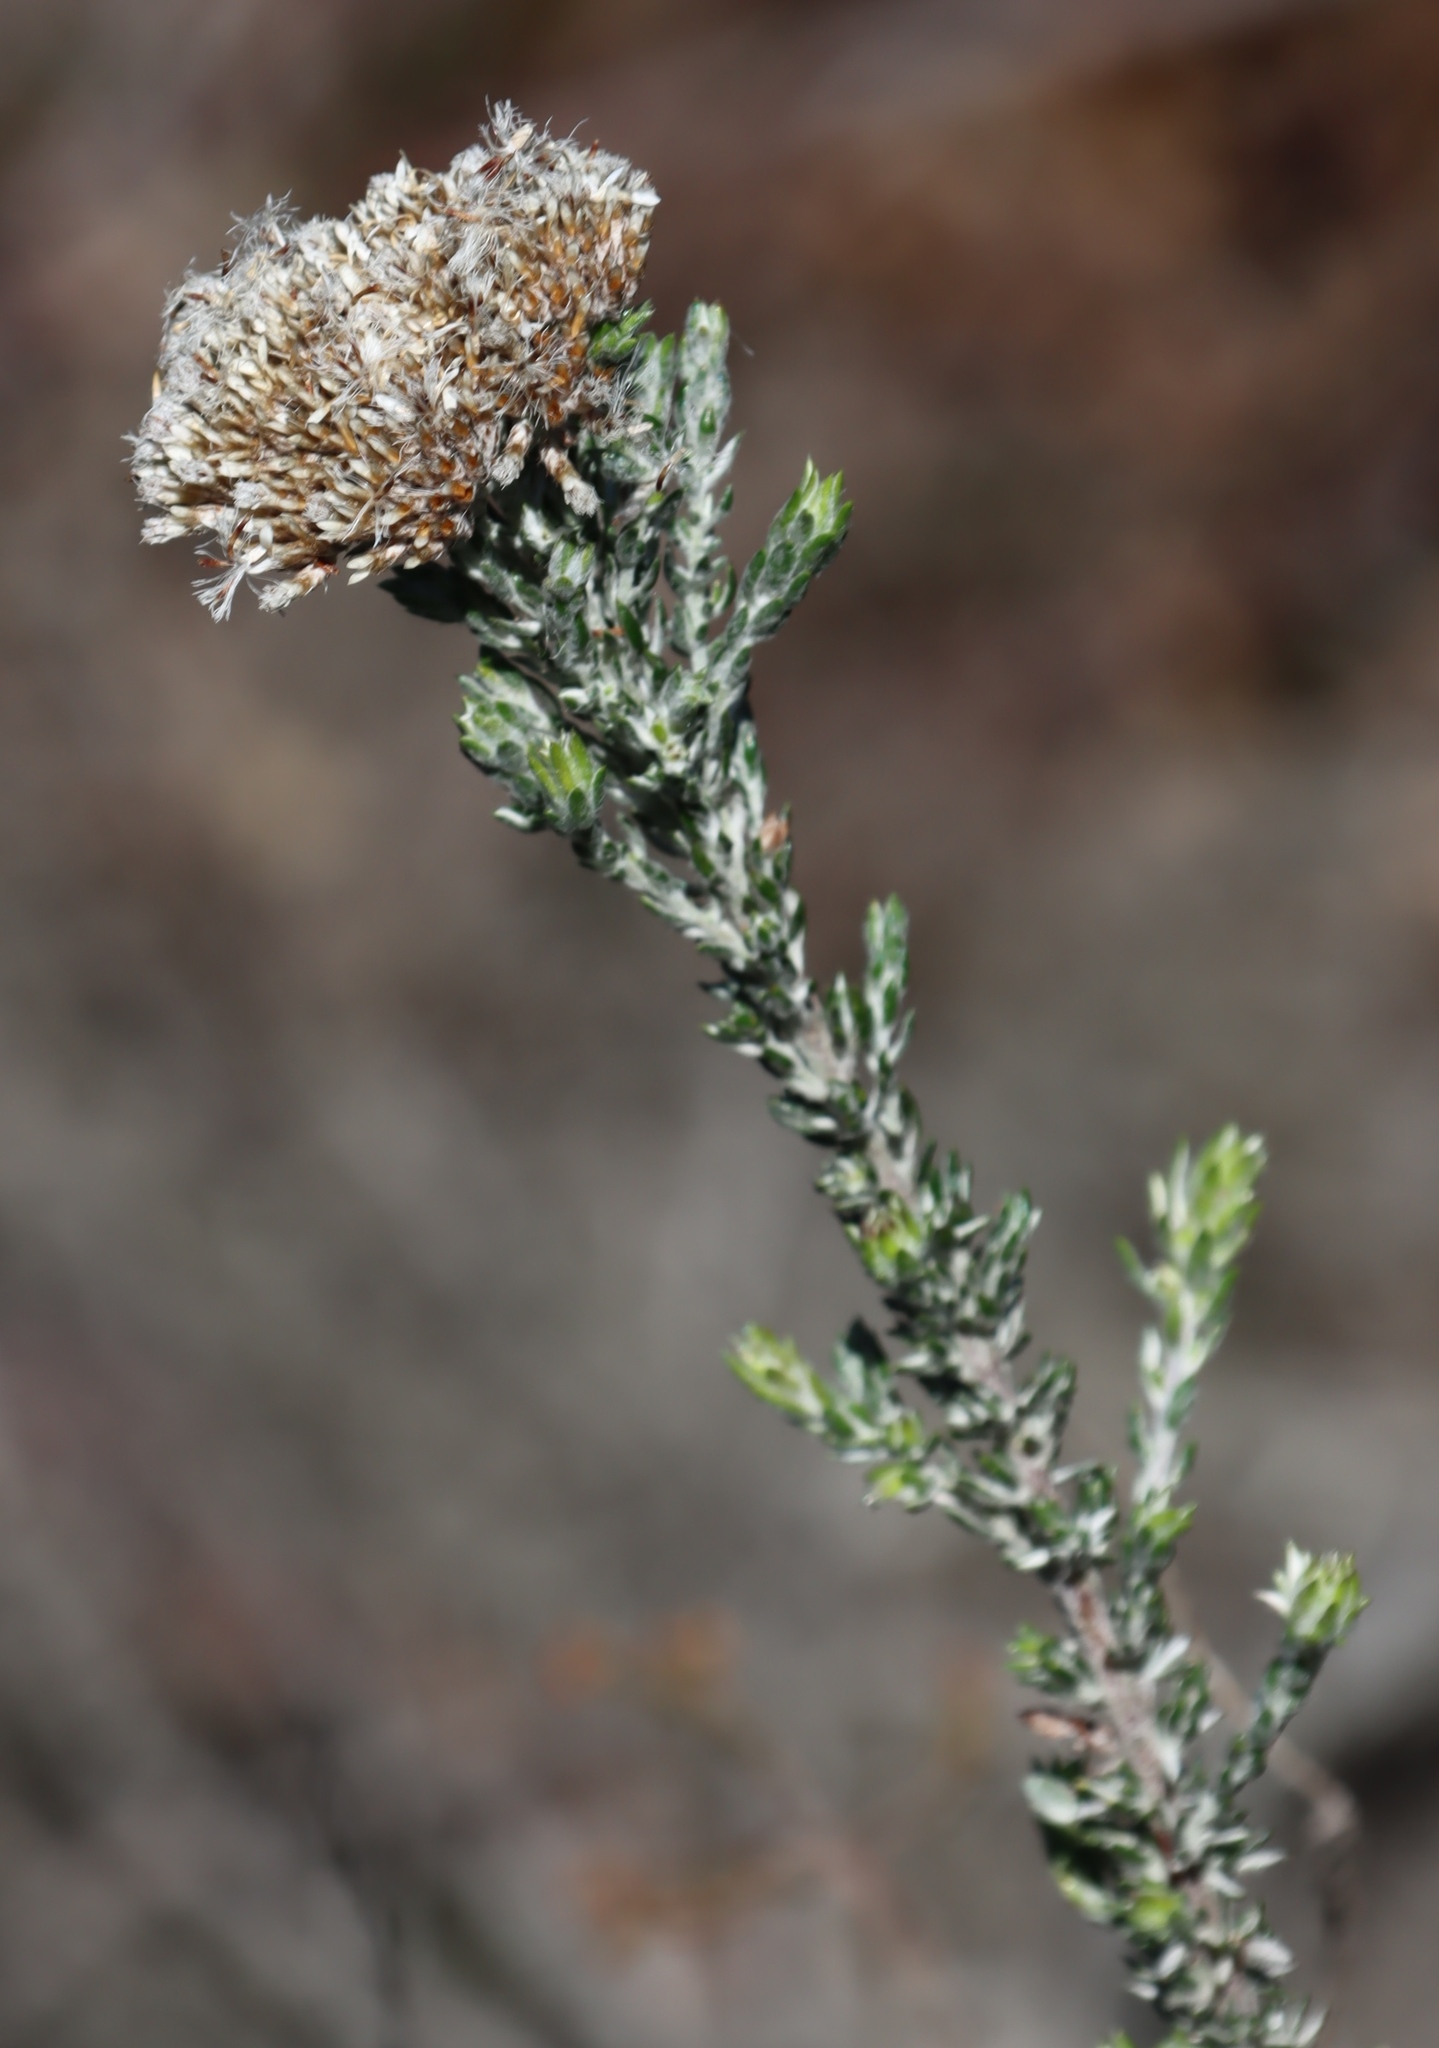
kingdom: Plantae
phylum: Tracheophyta
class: Magnoliopsida
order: Asterales
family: Asteraceae
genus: Metalasia
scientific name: Metalasia pungens
